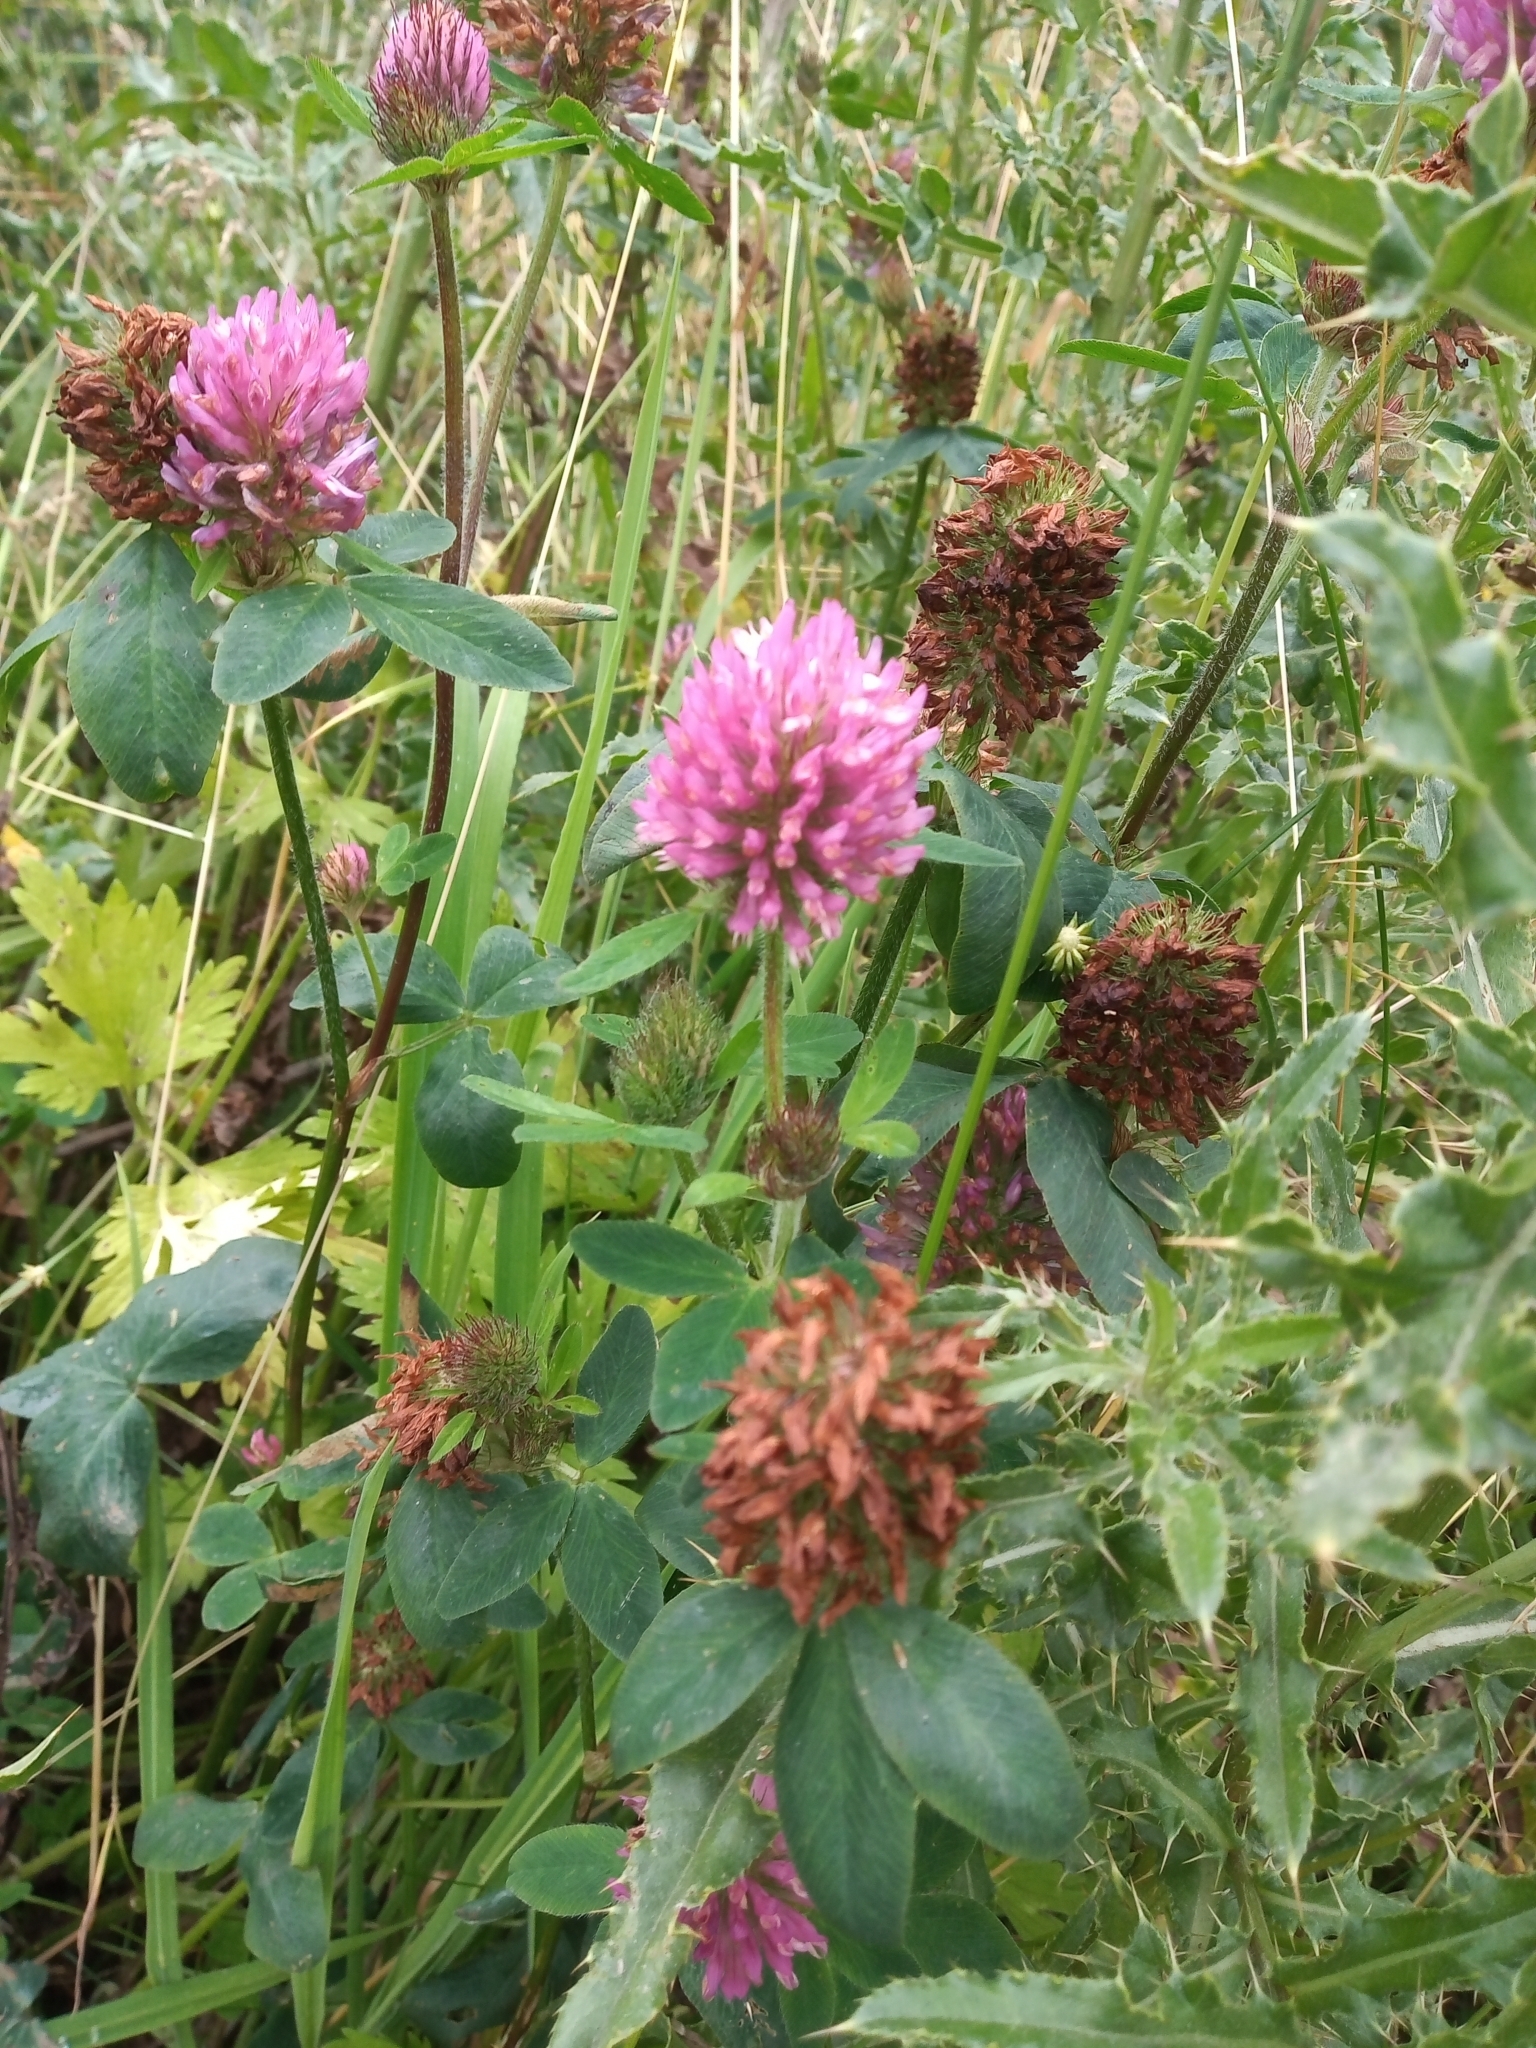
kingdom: Plantae
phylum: Tracheophyta
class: Magnoliopsida
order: Fabales
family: Fabaceae
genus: Trifolium
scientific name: Trifolium pratense
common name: Red clover
